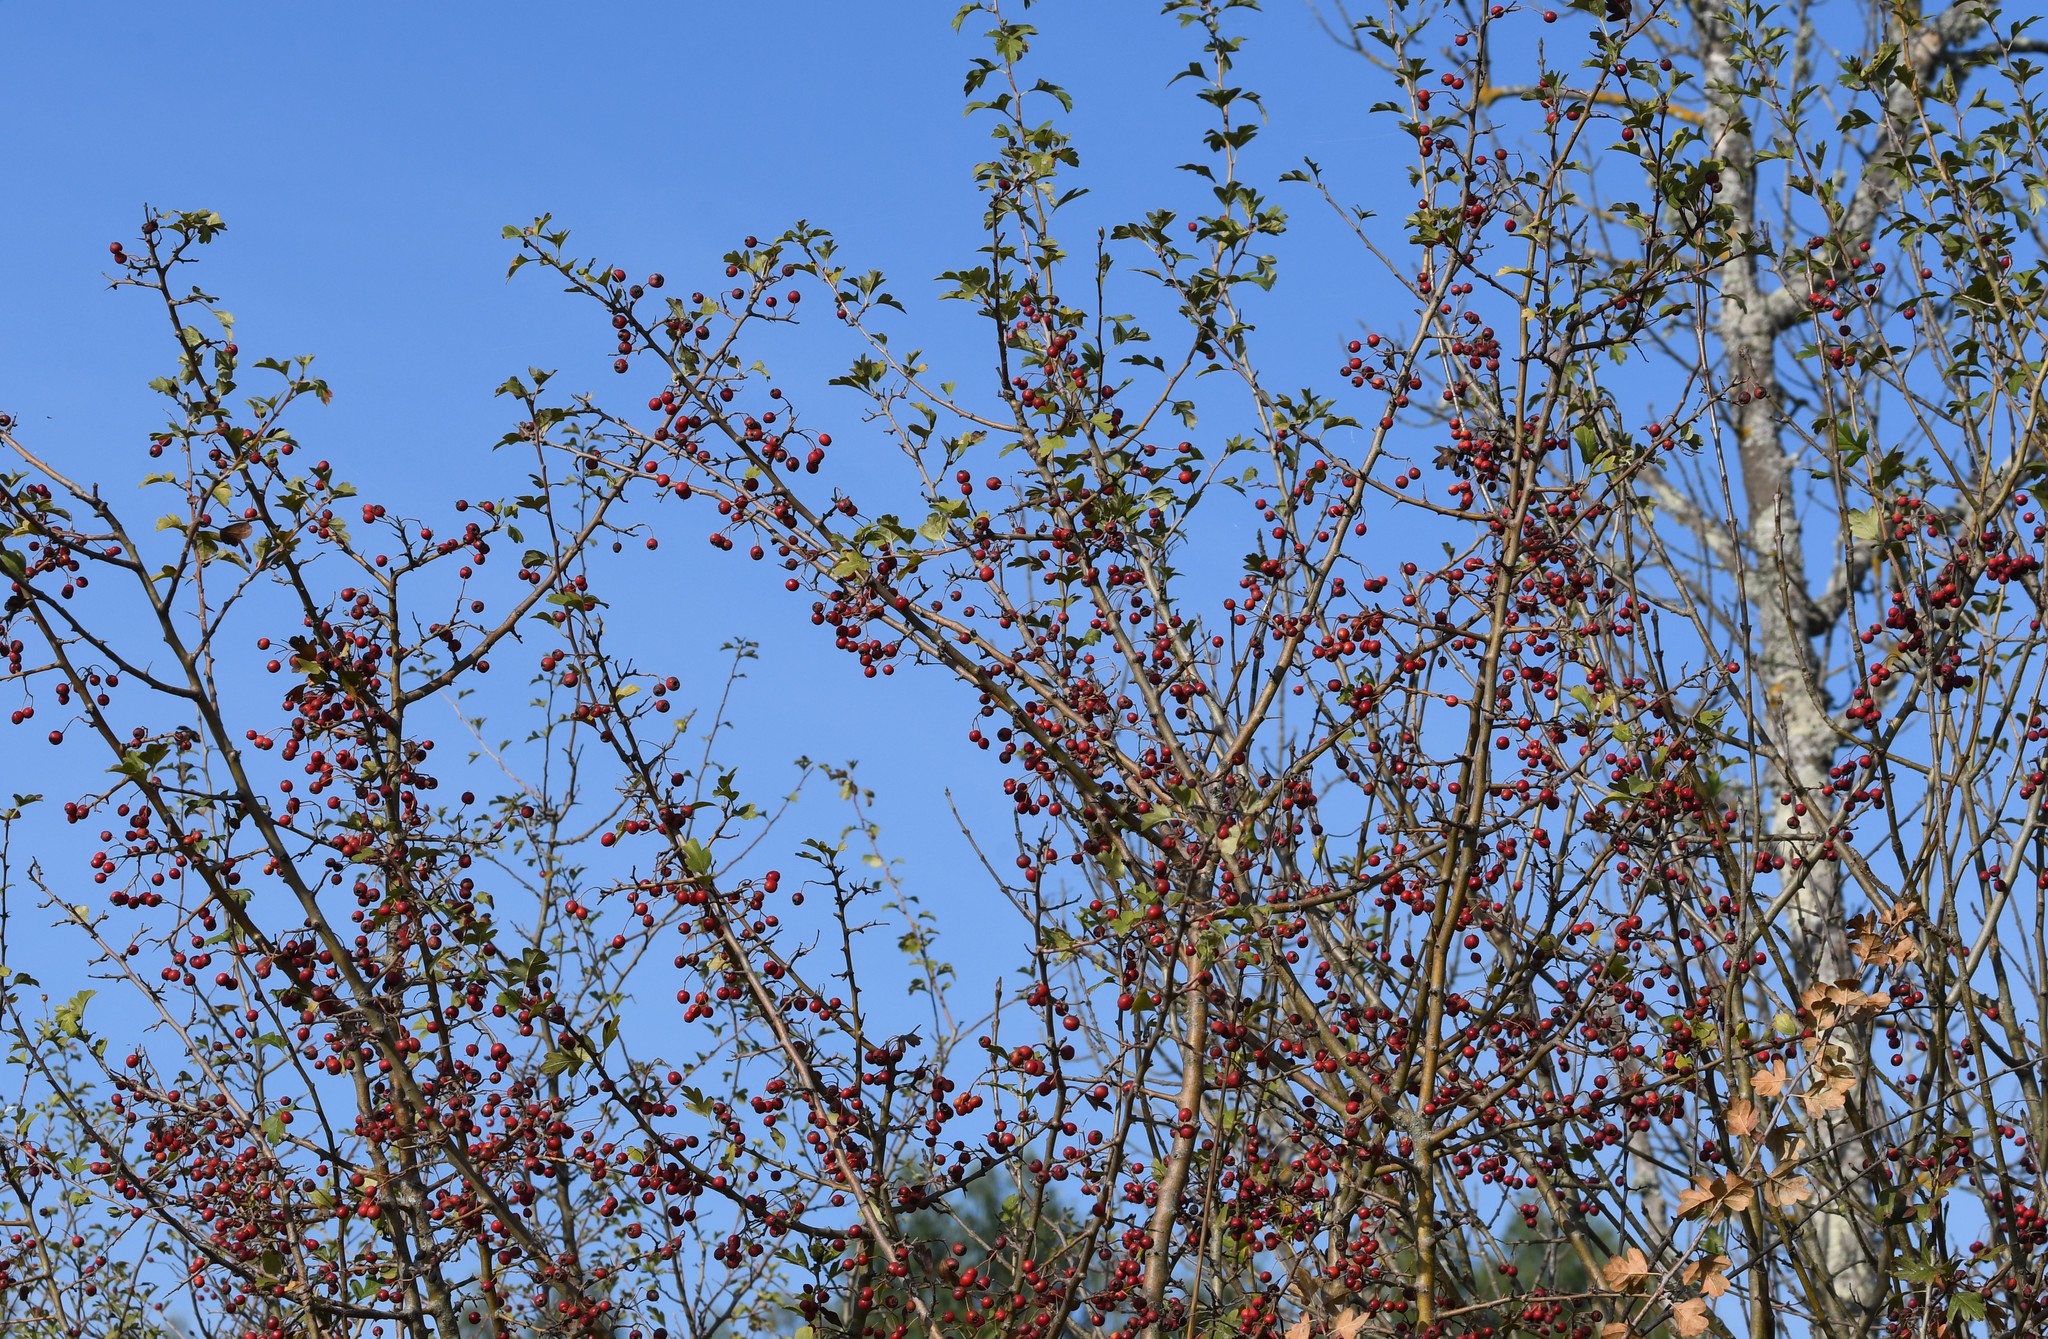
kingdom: Plantae
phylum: Tracheophyta
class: Magnoliopsida
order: Rosales
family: Rosaceae
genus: Crataegus
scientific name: Crataegus monogyna
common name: Hawthorn
